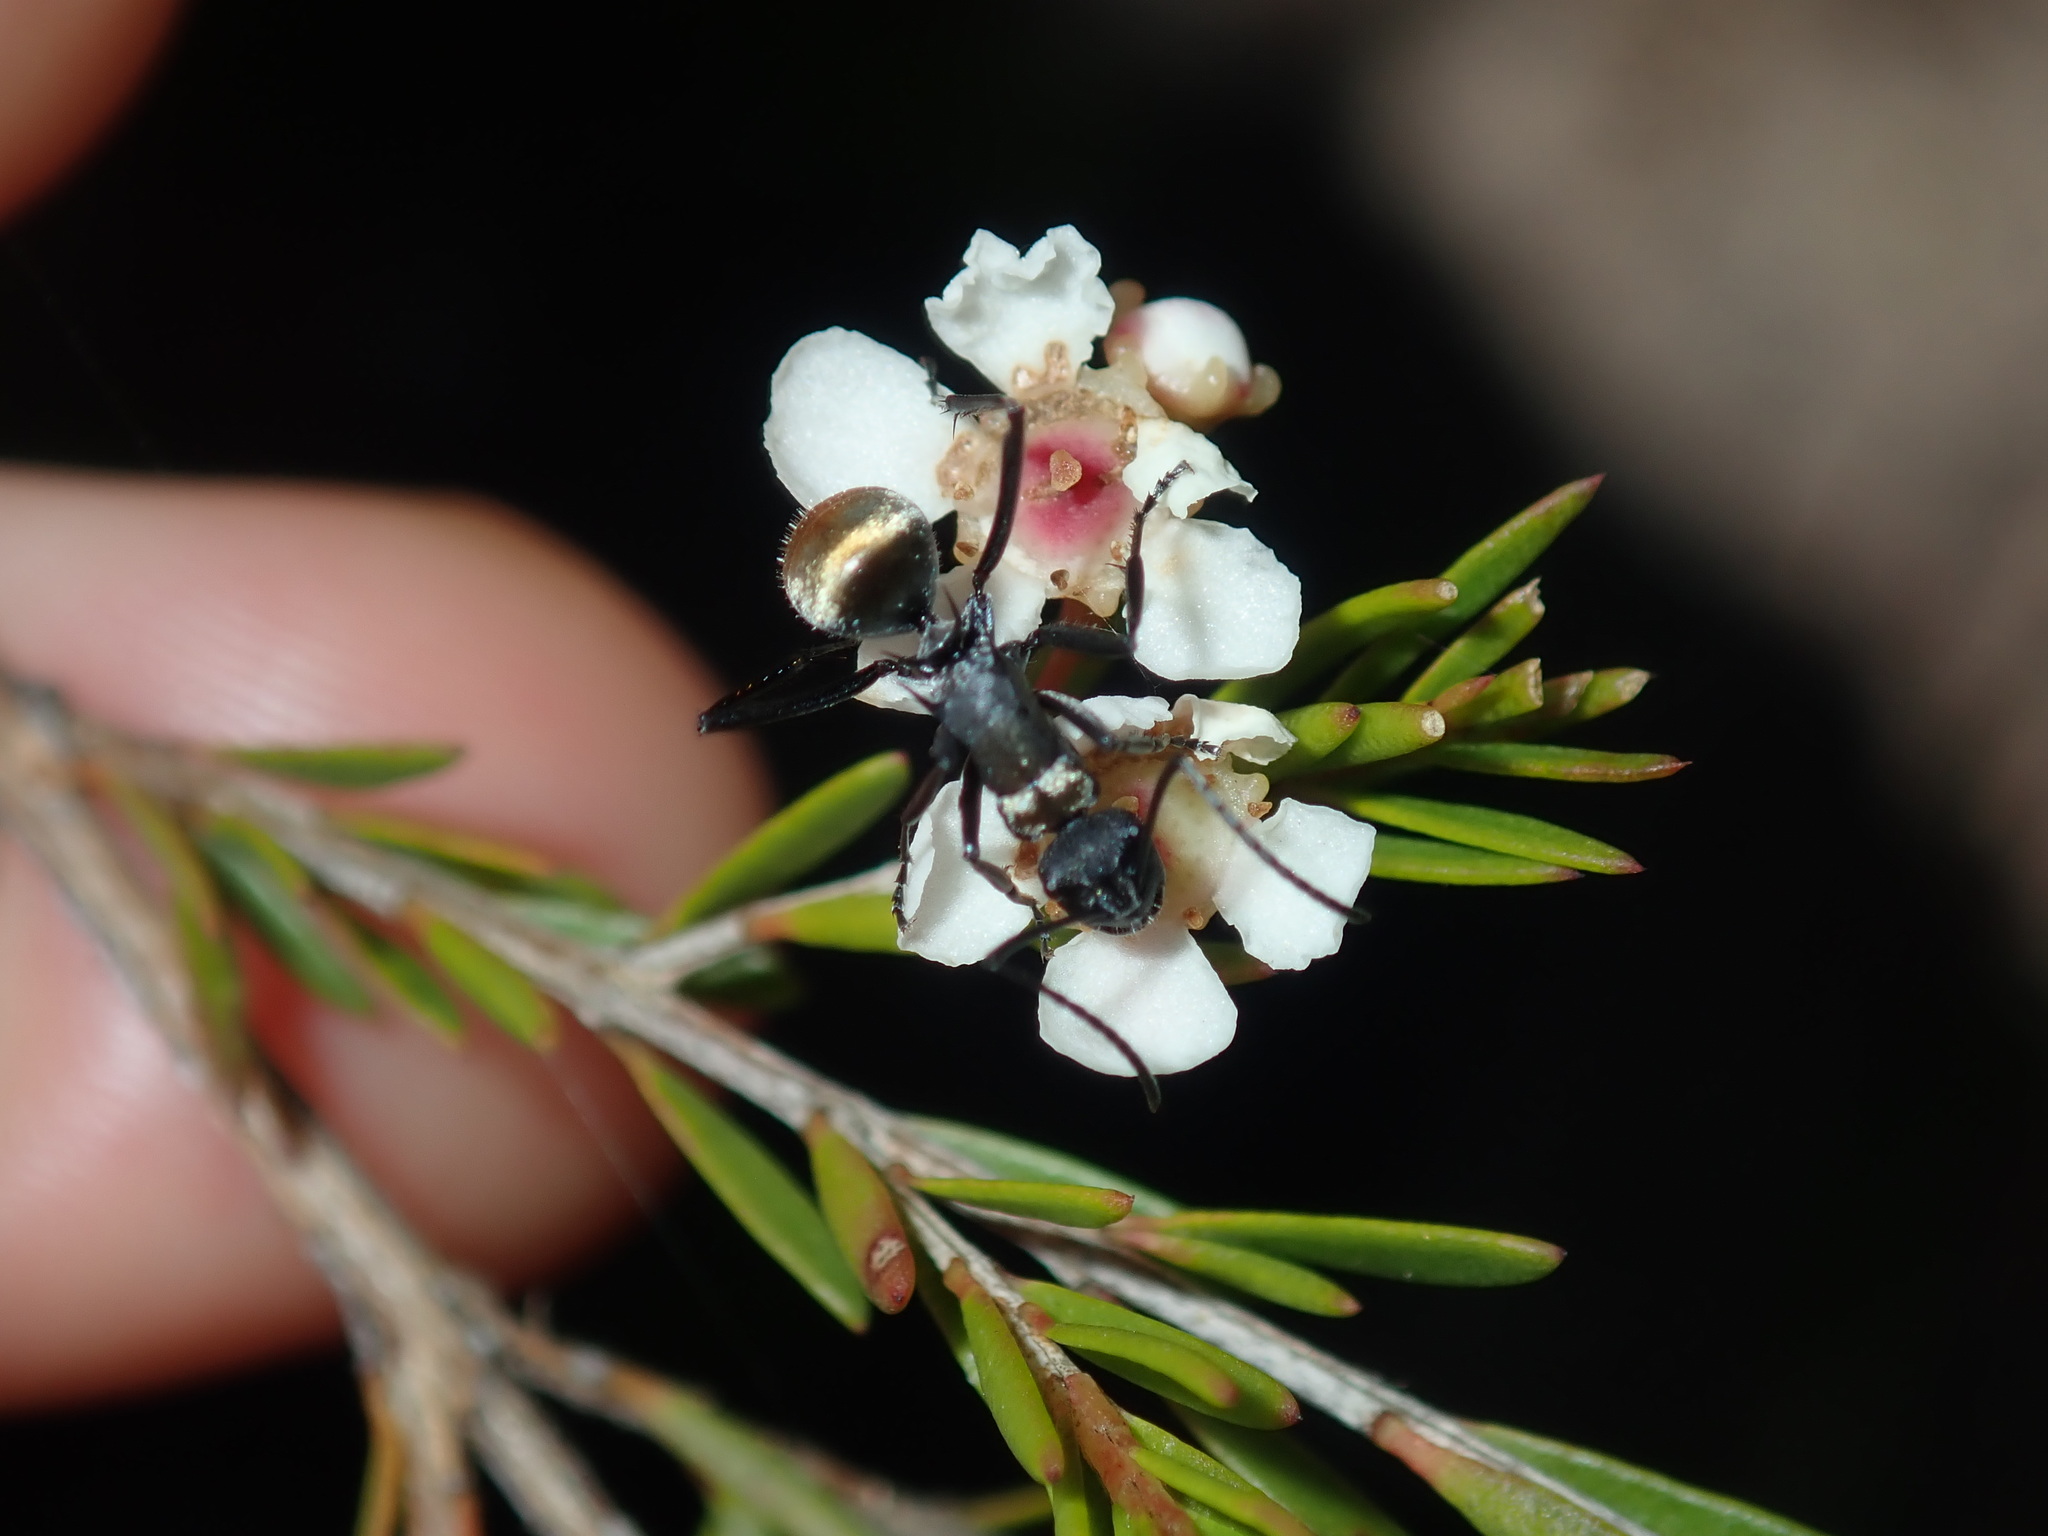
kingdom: Animalia
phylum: Arthropoda
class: Insecta
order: Hymenoptera
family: Formicidae
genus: Polyrhachis
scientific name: Polyrhachis ammon
